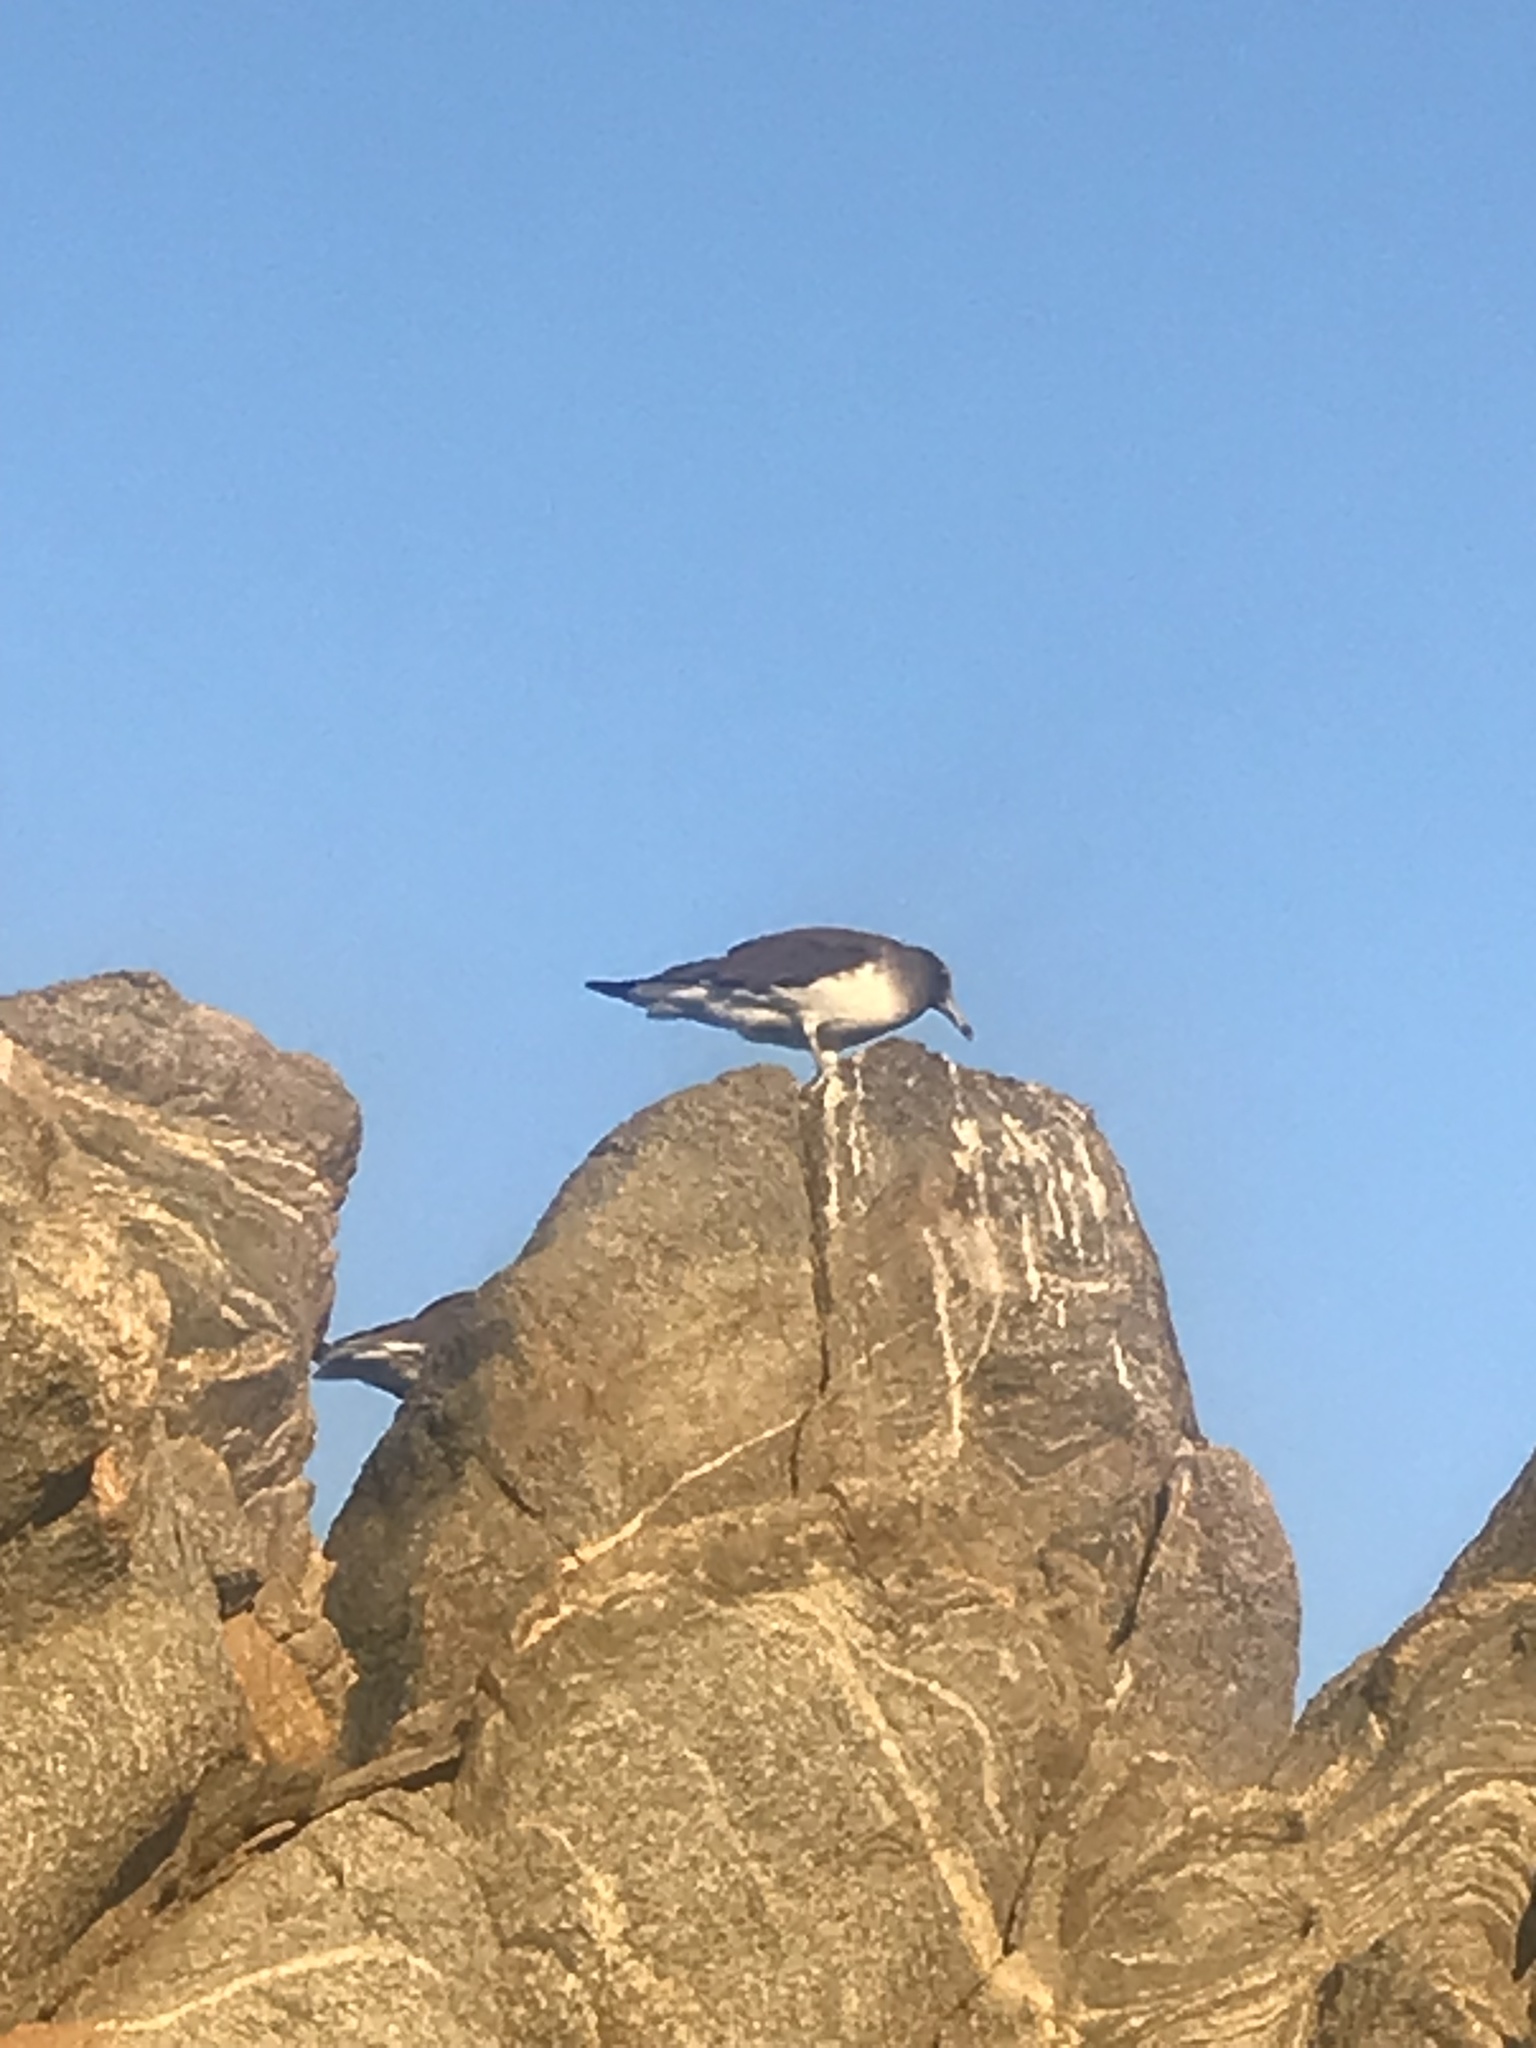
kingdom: Animalia
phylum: Chordata
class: Aves
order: Charadriiformes
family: Laridae
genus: Ichthyaetus
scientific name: Ichthyaetus hemprichii
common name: Sooty gull
